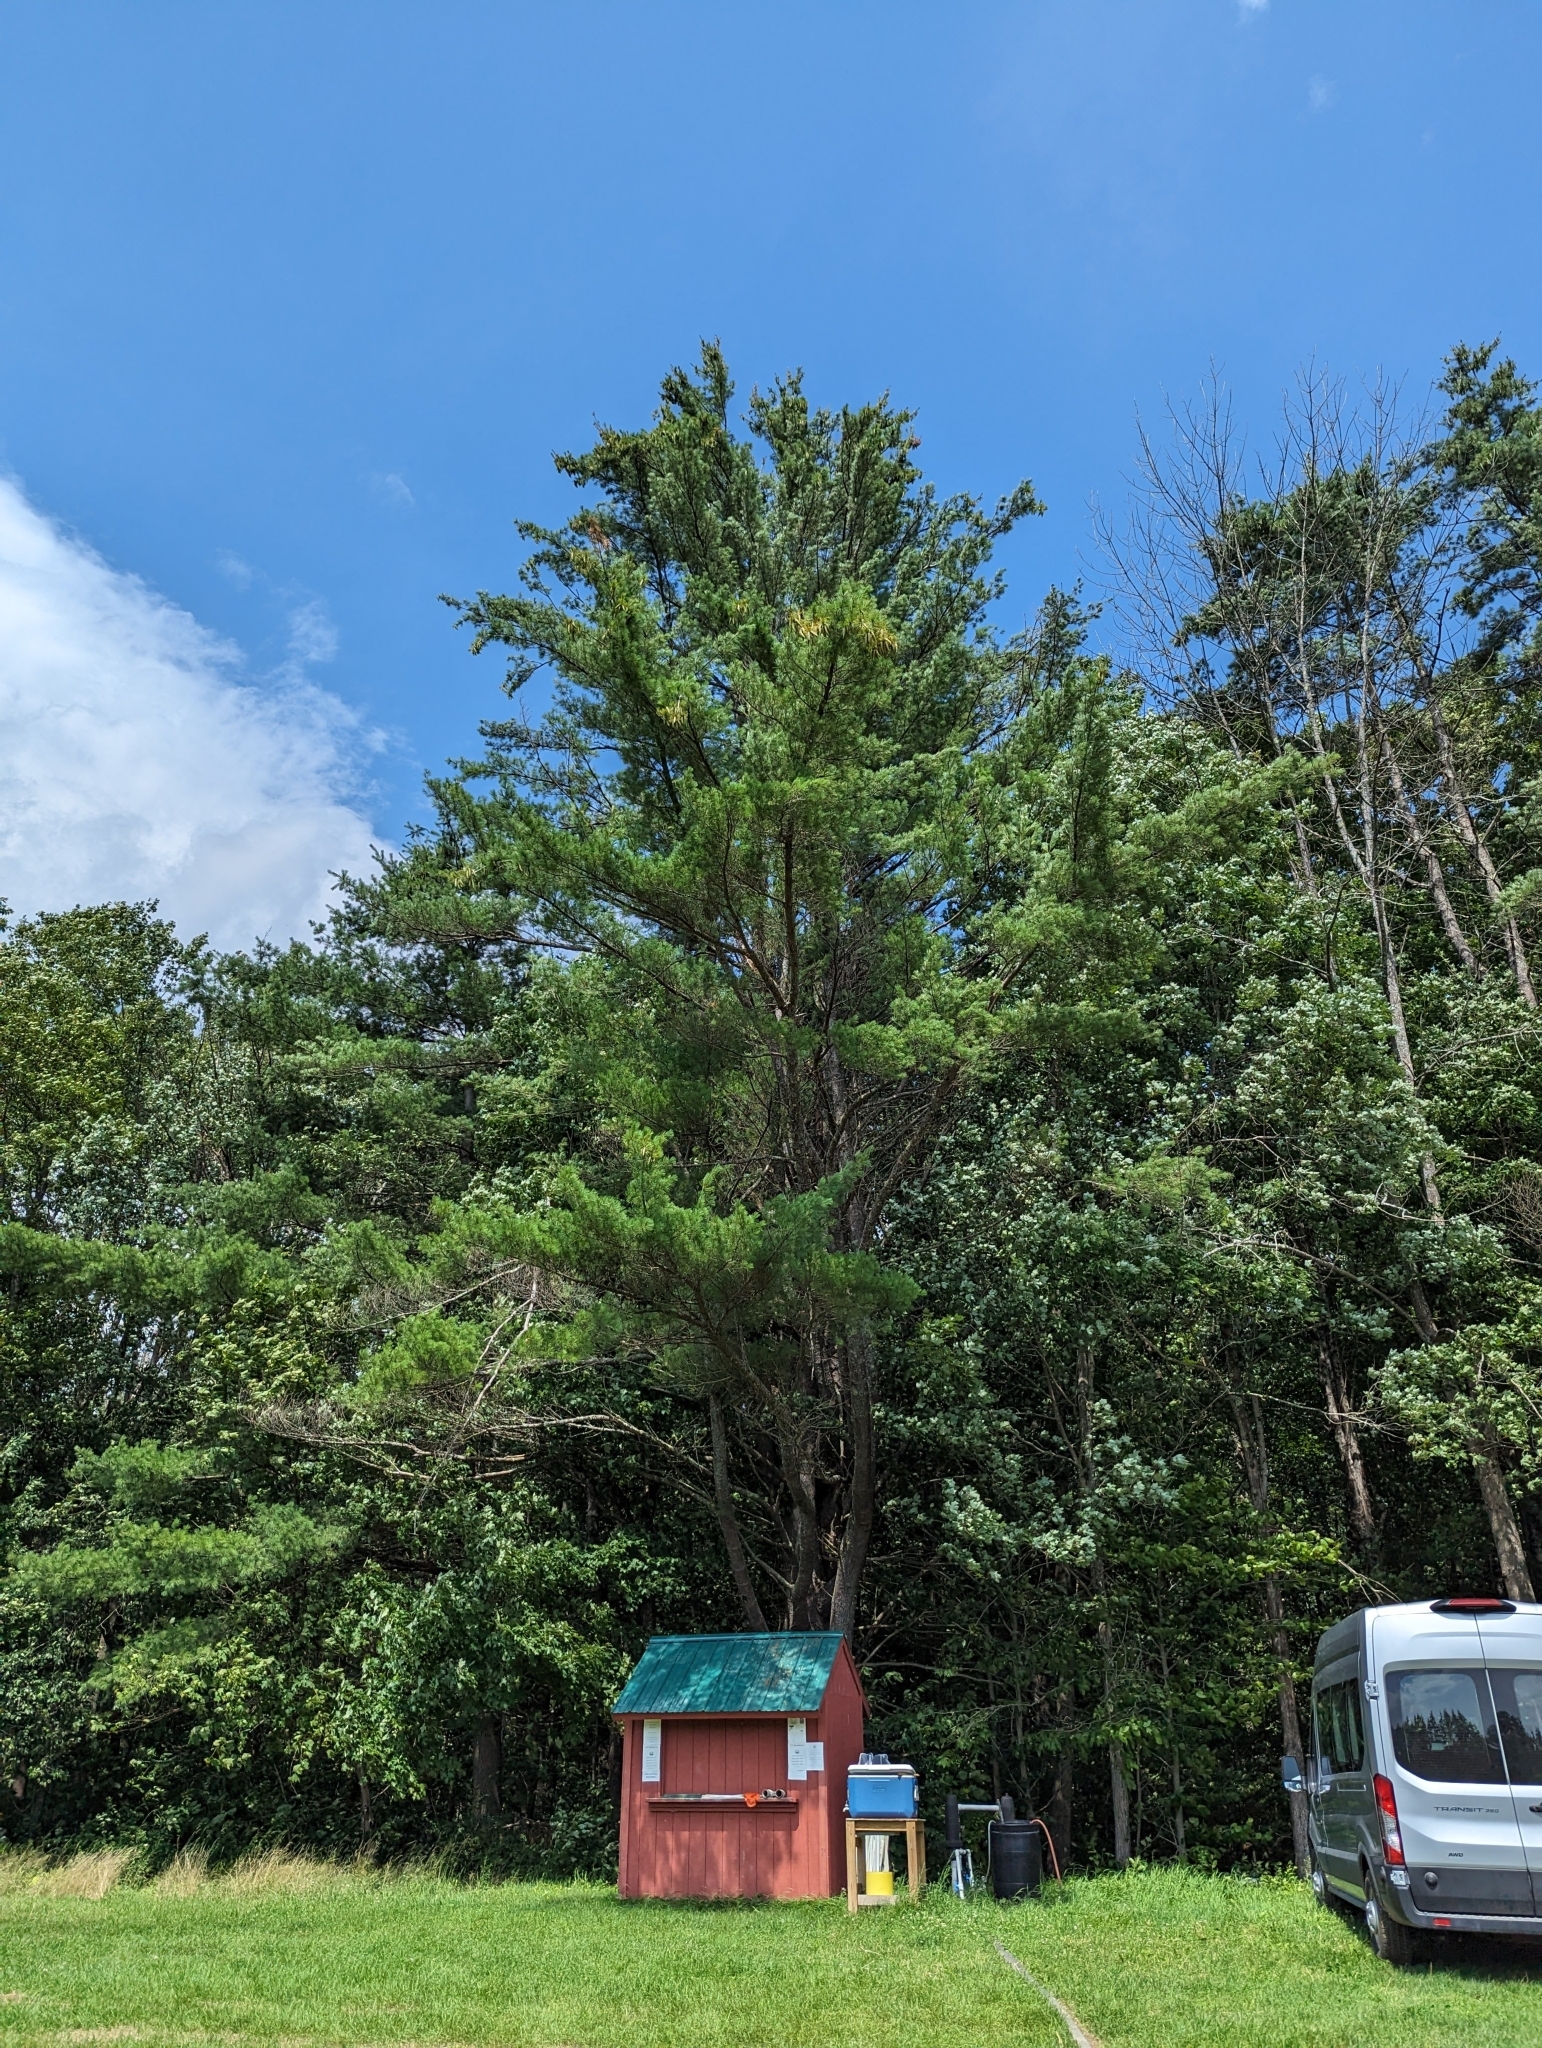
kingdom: Plantae
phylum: Tracheophyta
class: Pinopsida
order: Pinales
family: Pinaceae
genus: Pinus
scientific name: Pinus strobus
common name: Weymouth pine
